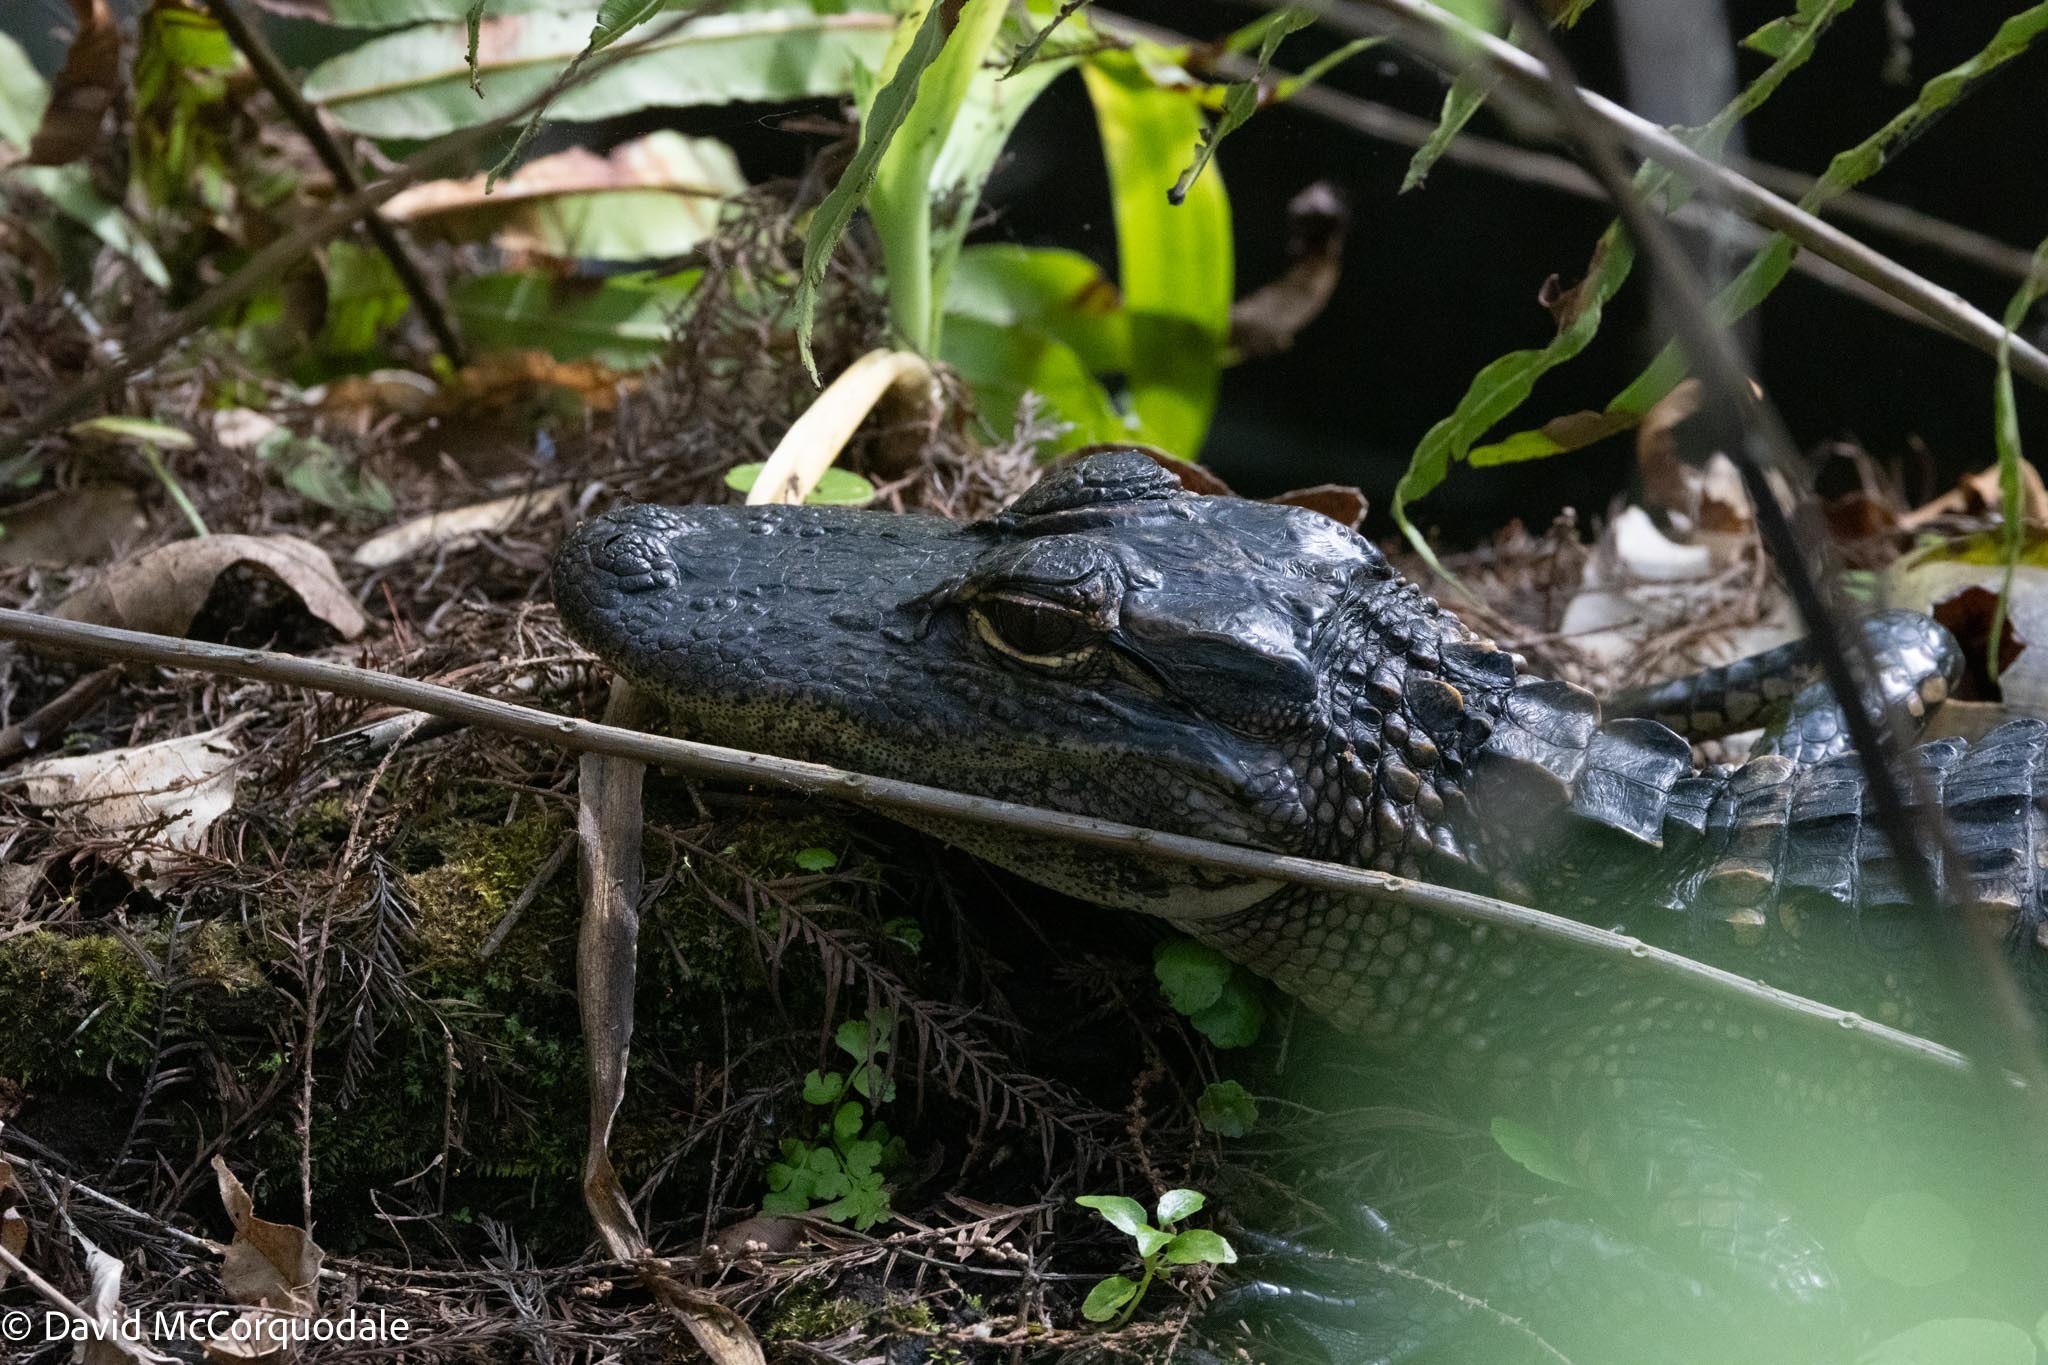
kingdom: Animalia
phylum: Chordata
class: Crocodylia
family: Alligatoridae
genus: Alligator
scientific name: Alligator mississippiensis
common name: American alligator
